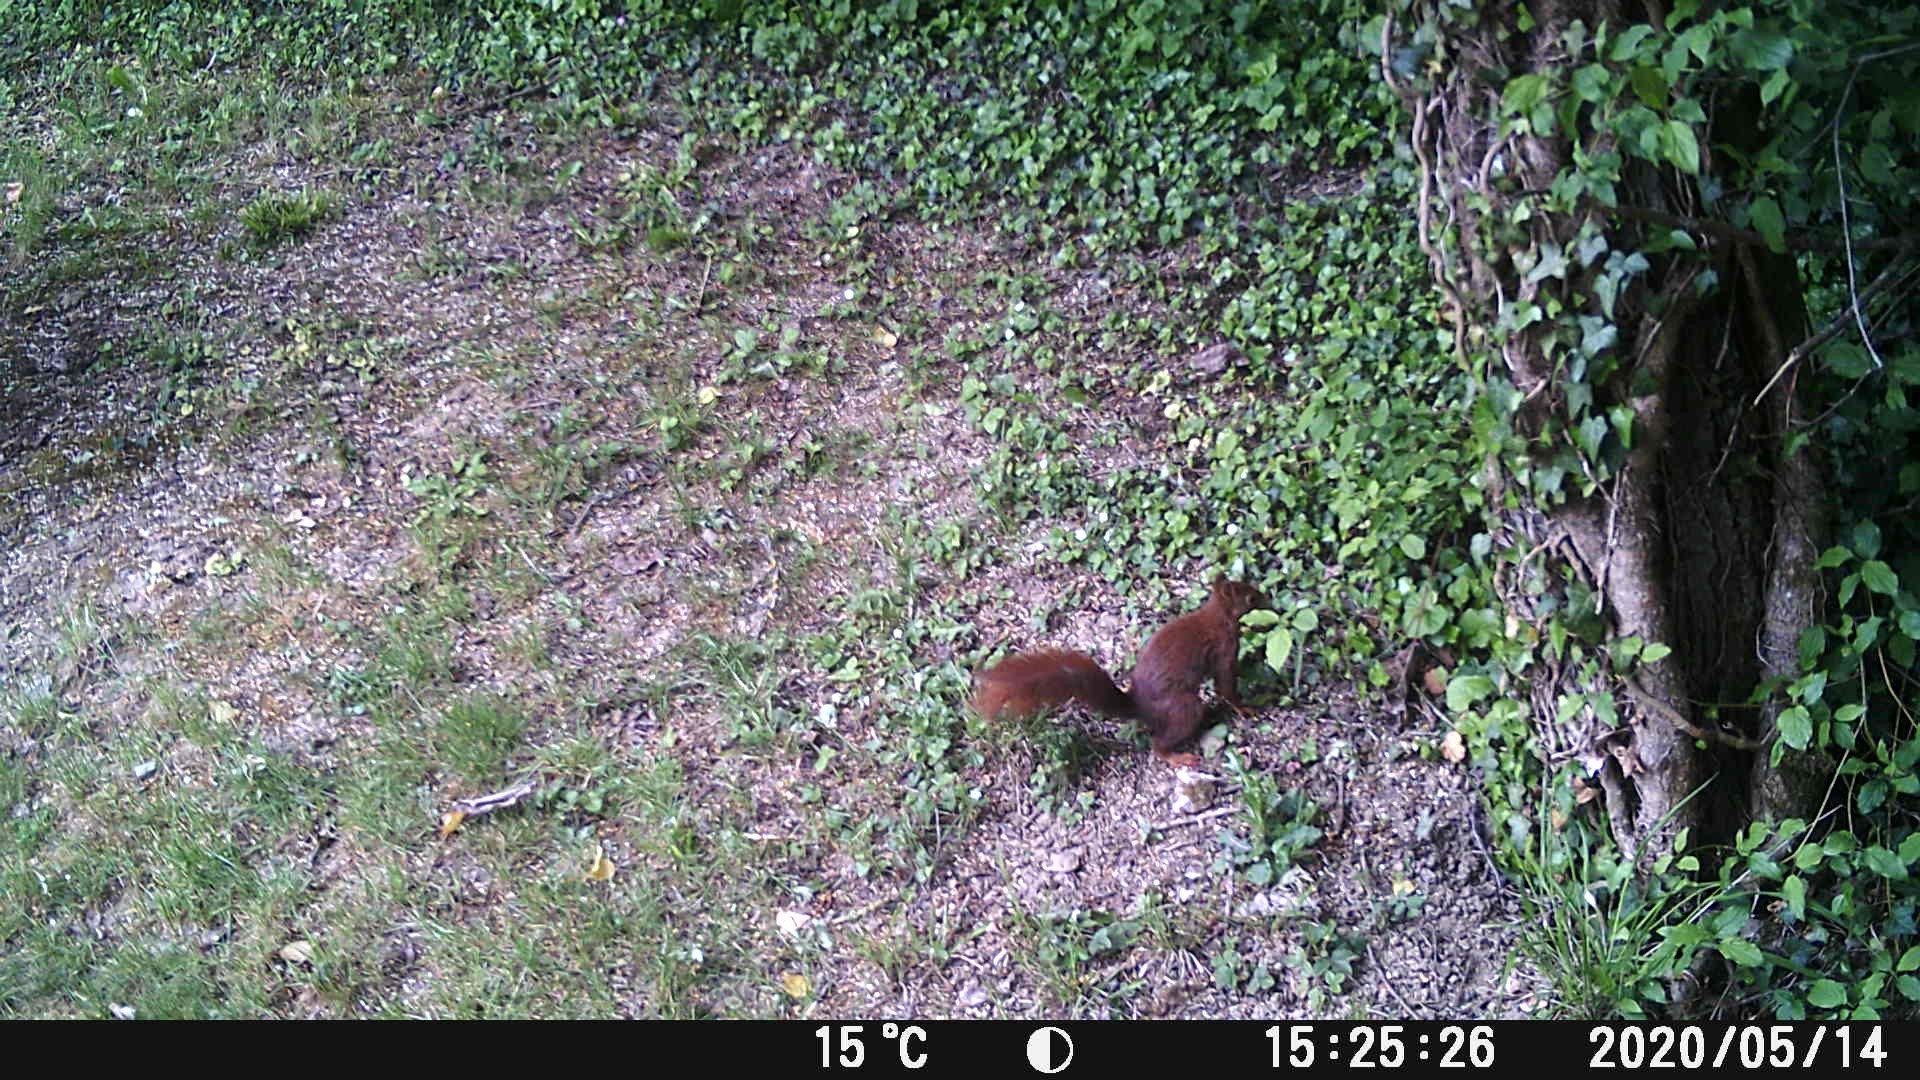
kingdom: Animalia
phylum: Chordata
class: Mammalia
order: Rodentia
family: Sciuridae
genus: Sciurus
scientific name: Sciurus vulgaris
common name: Eurasian red squirrel
